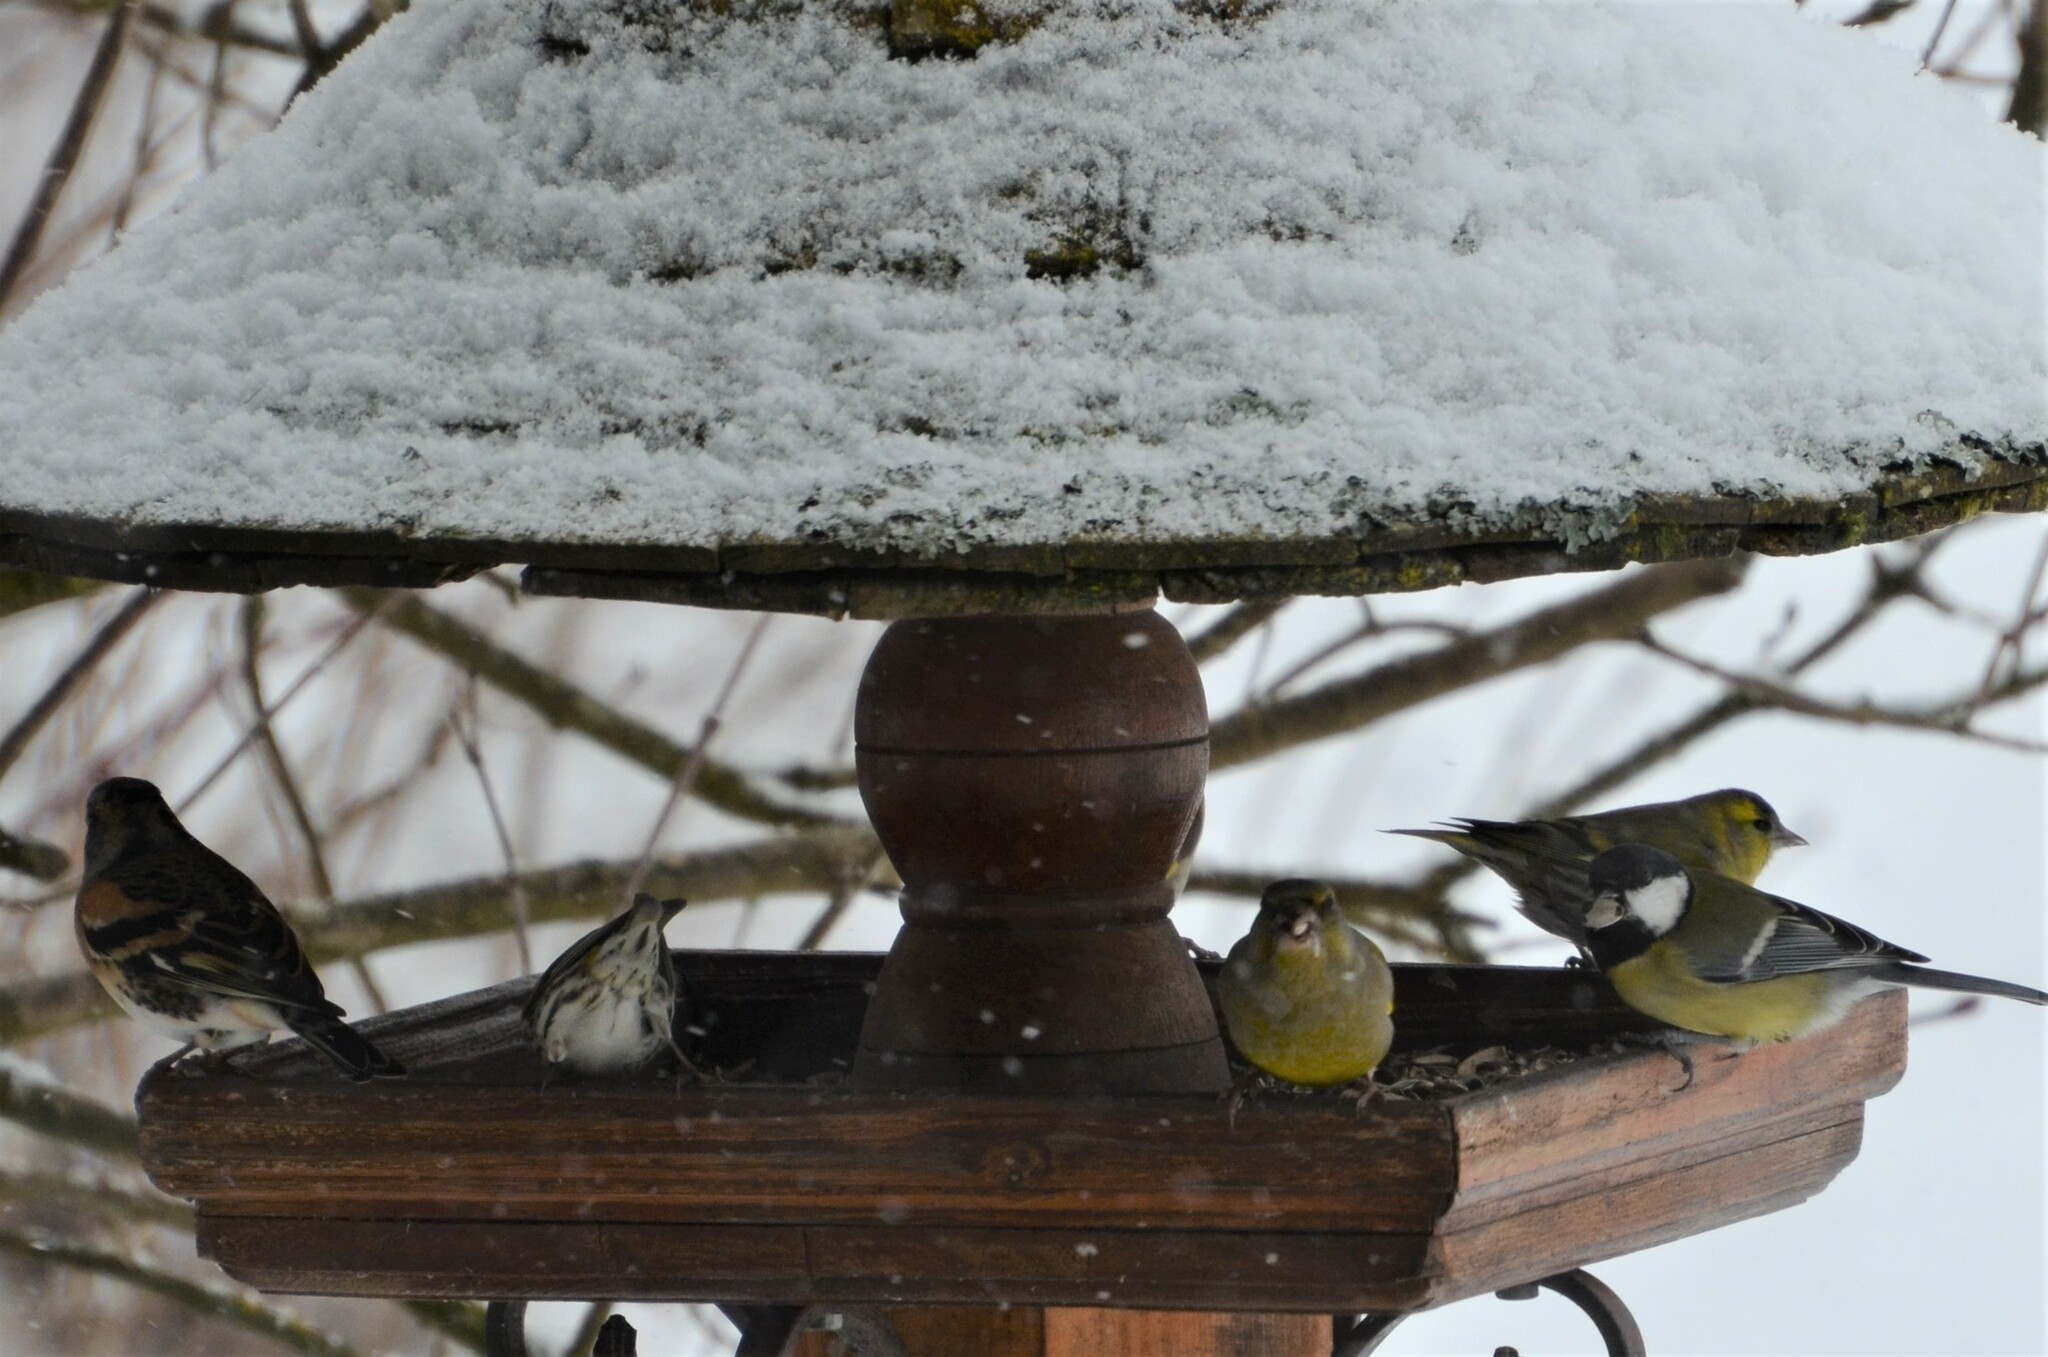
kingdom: Animalia
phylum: Chordata
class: Aves
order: Passeriformes
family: Paridae
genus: Parus
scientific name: Parus major
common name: Great tit
